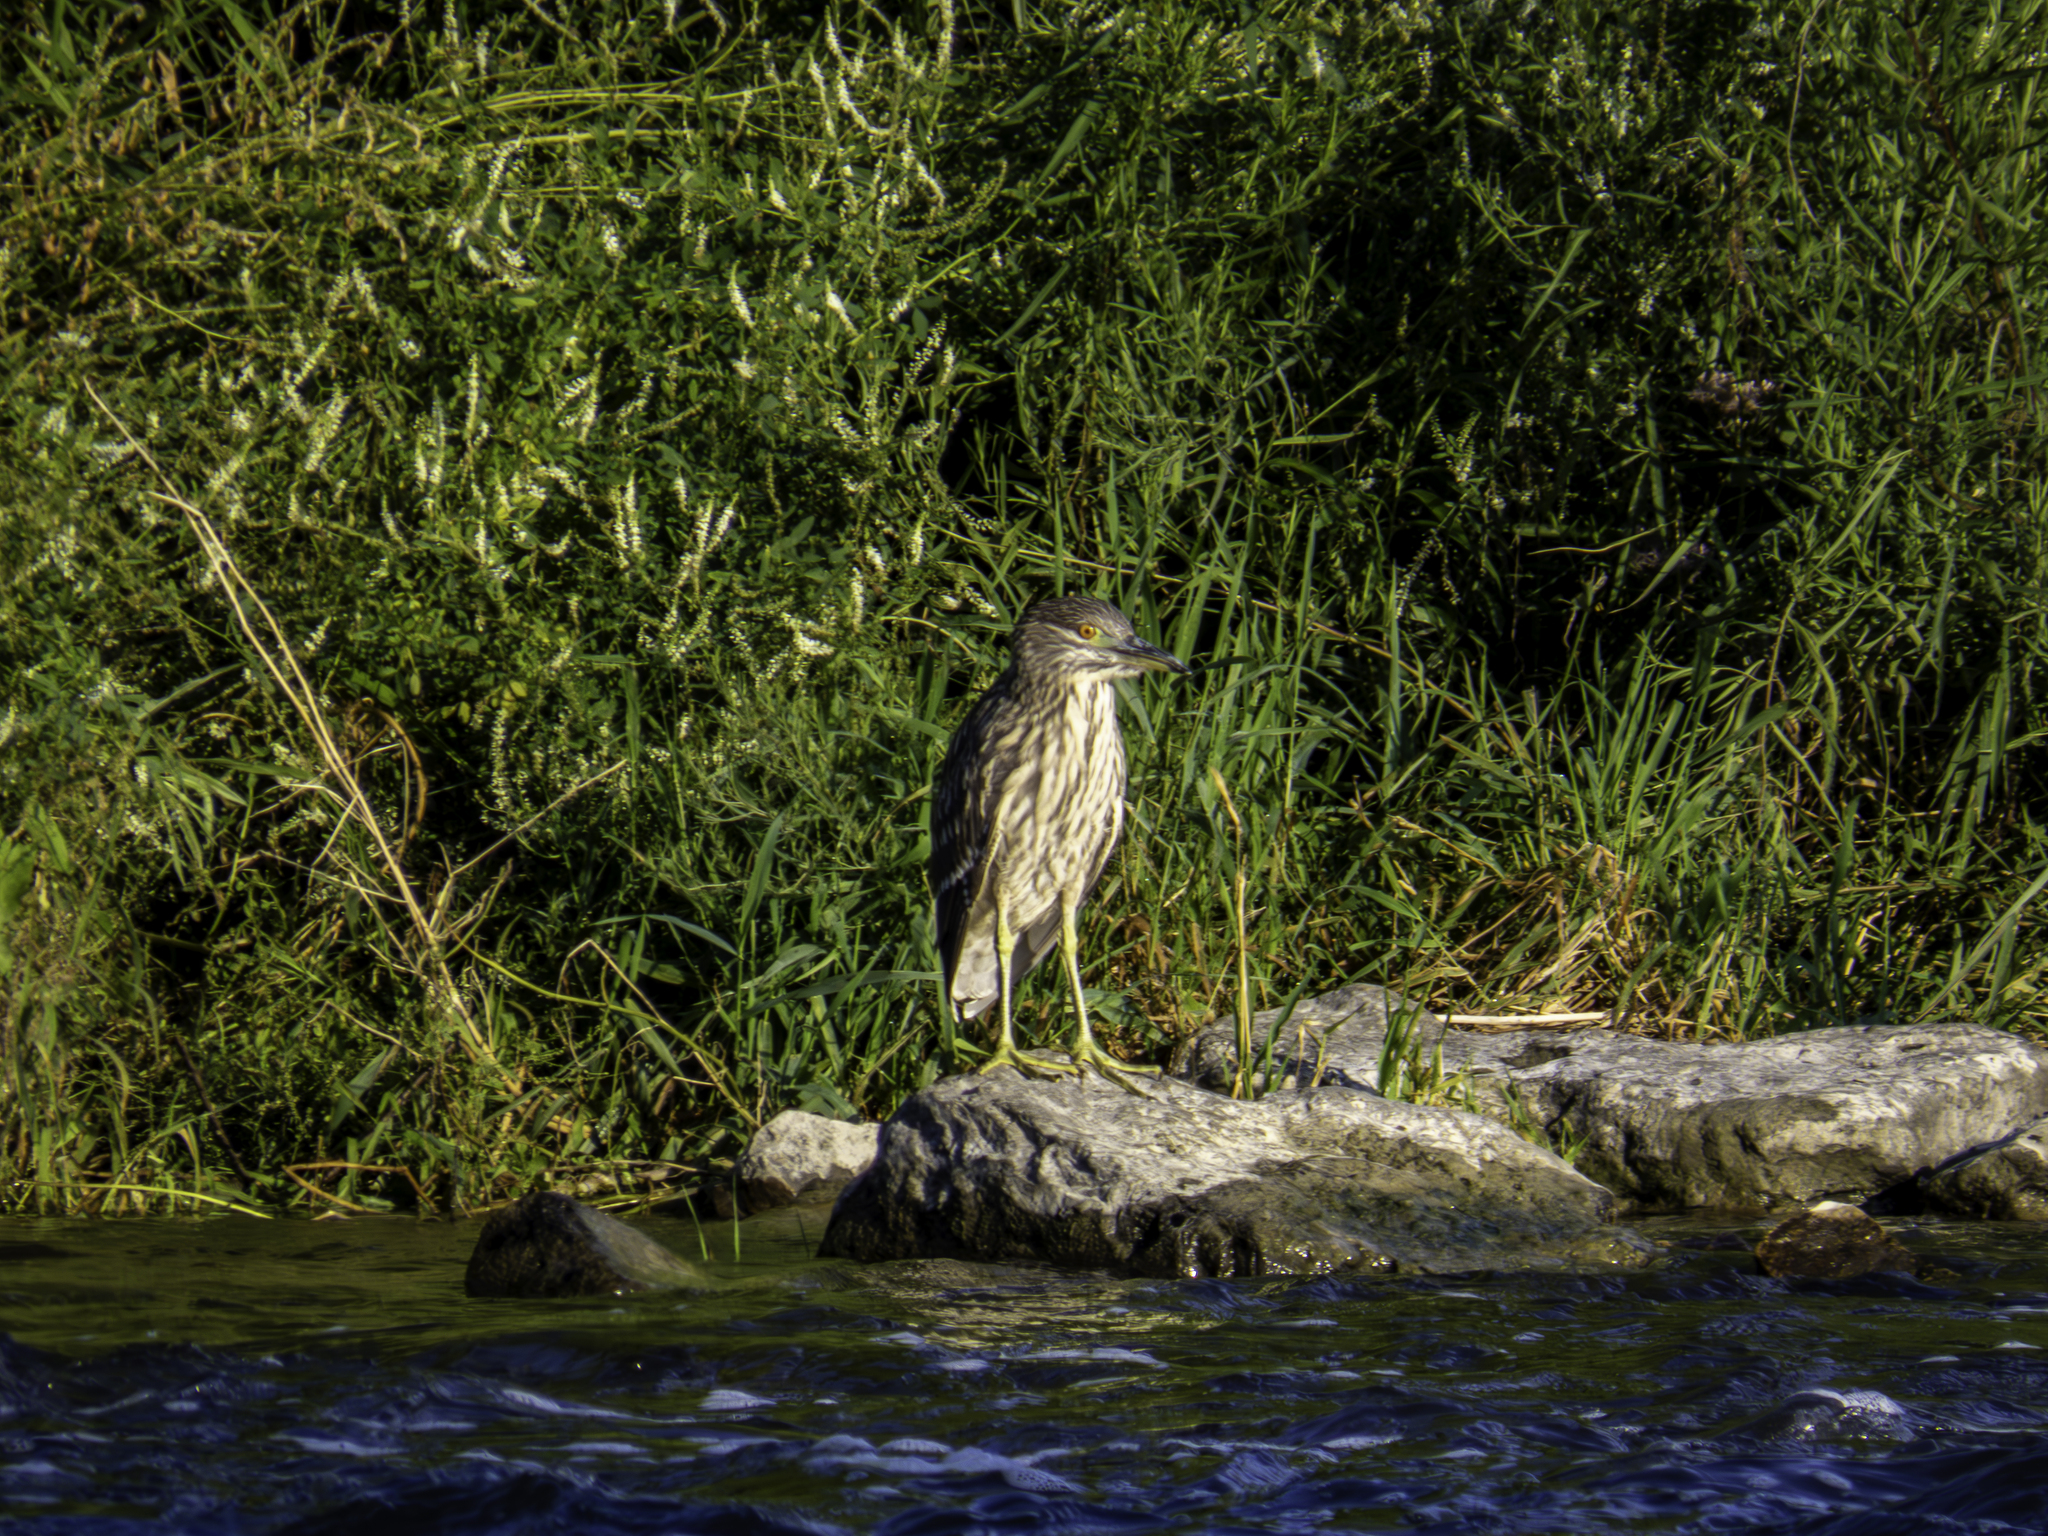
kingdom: Animalia
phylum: Chordata
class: Aves
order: Pelecaniformes
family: Ardeidae
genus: Nycticorax
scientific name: Nycticorax nycticorax
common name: Black-crowned night heron
